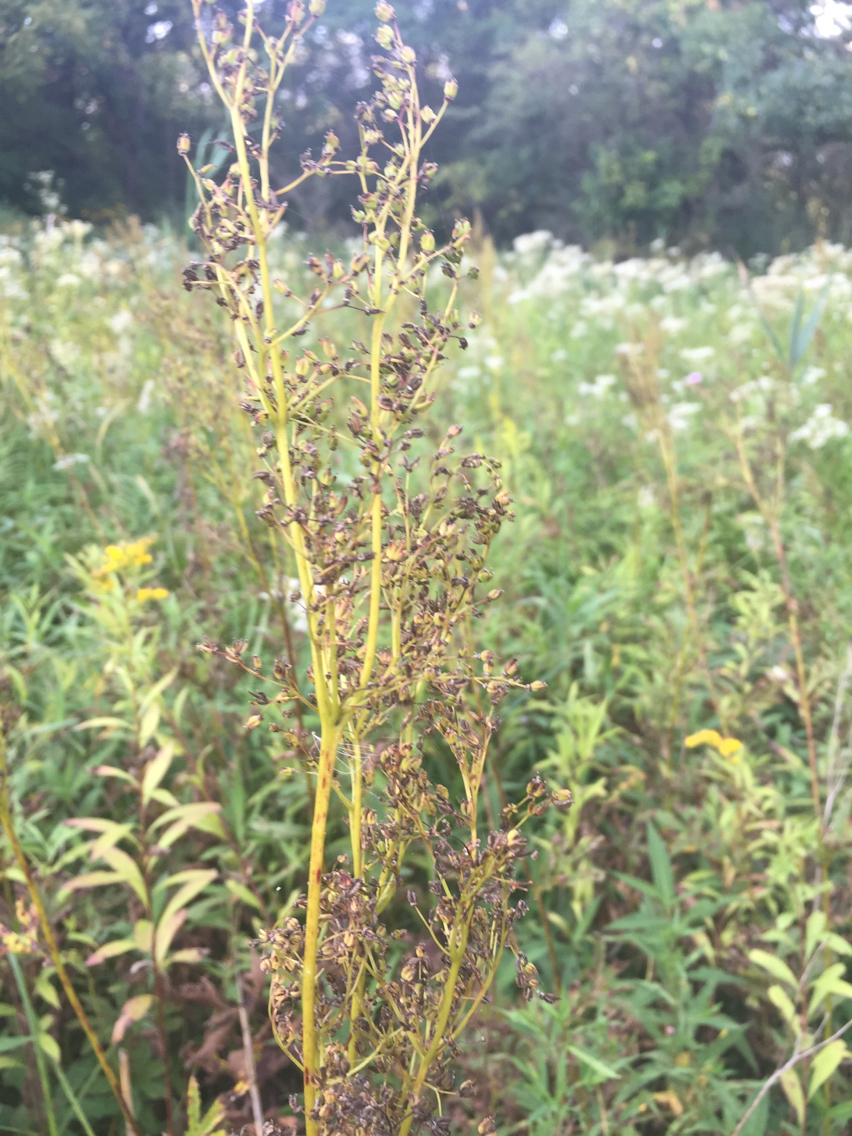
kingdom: Plantae
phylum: Tracheophyta
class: Magnoliopsida
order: Rosales
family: Rosaceae
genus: Filipendula
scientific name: Filipendula rubra
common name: Queen-of-the-prairie
